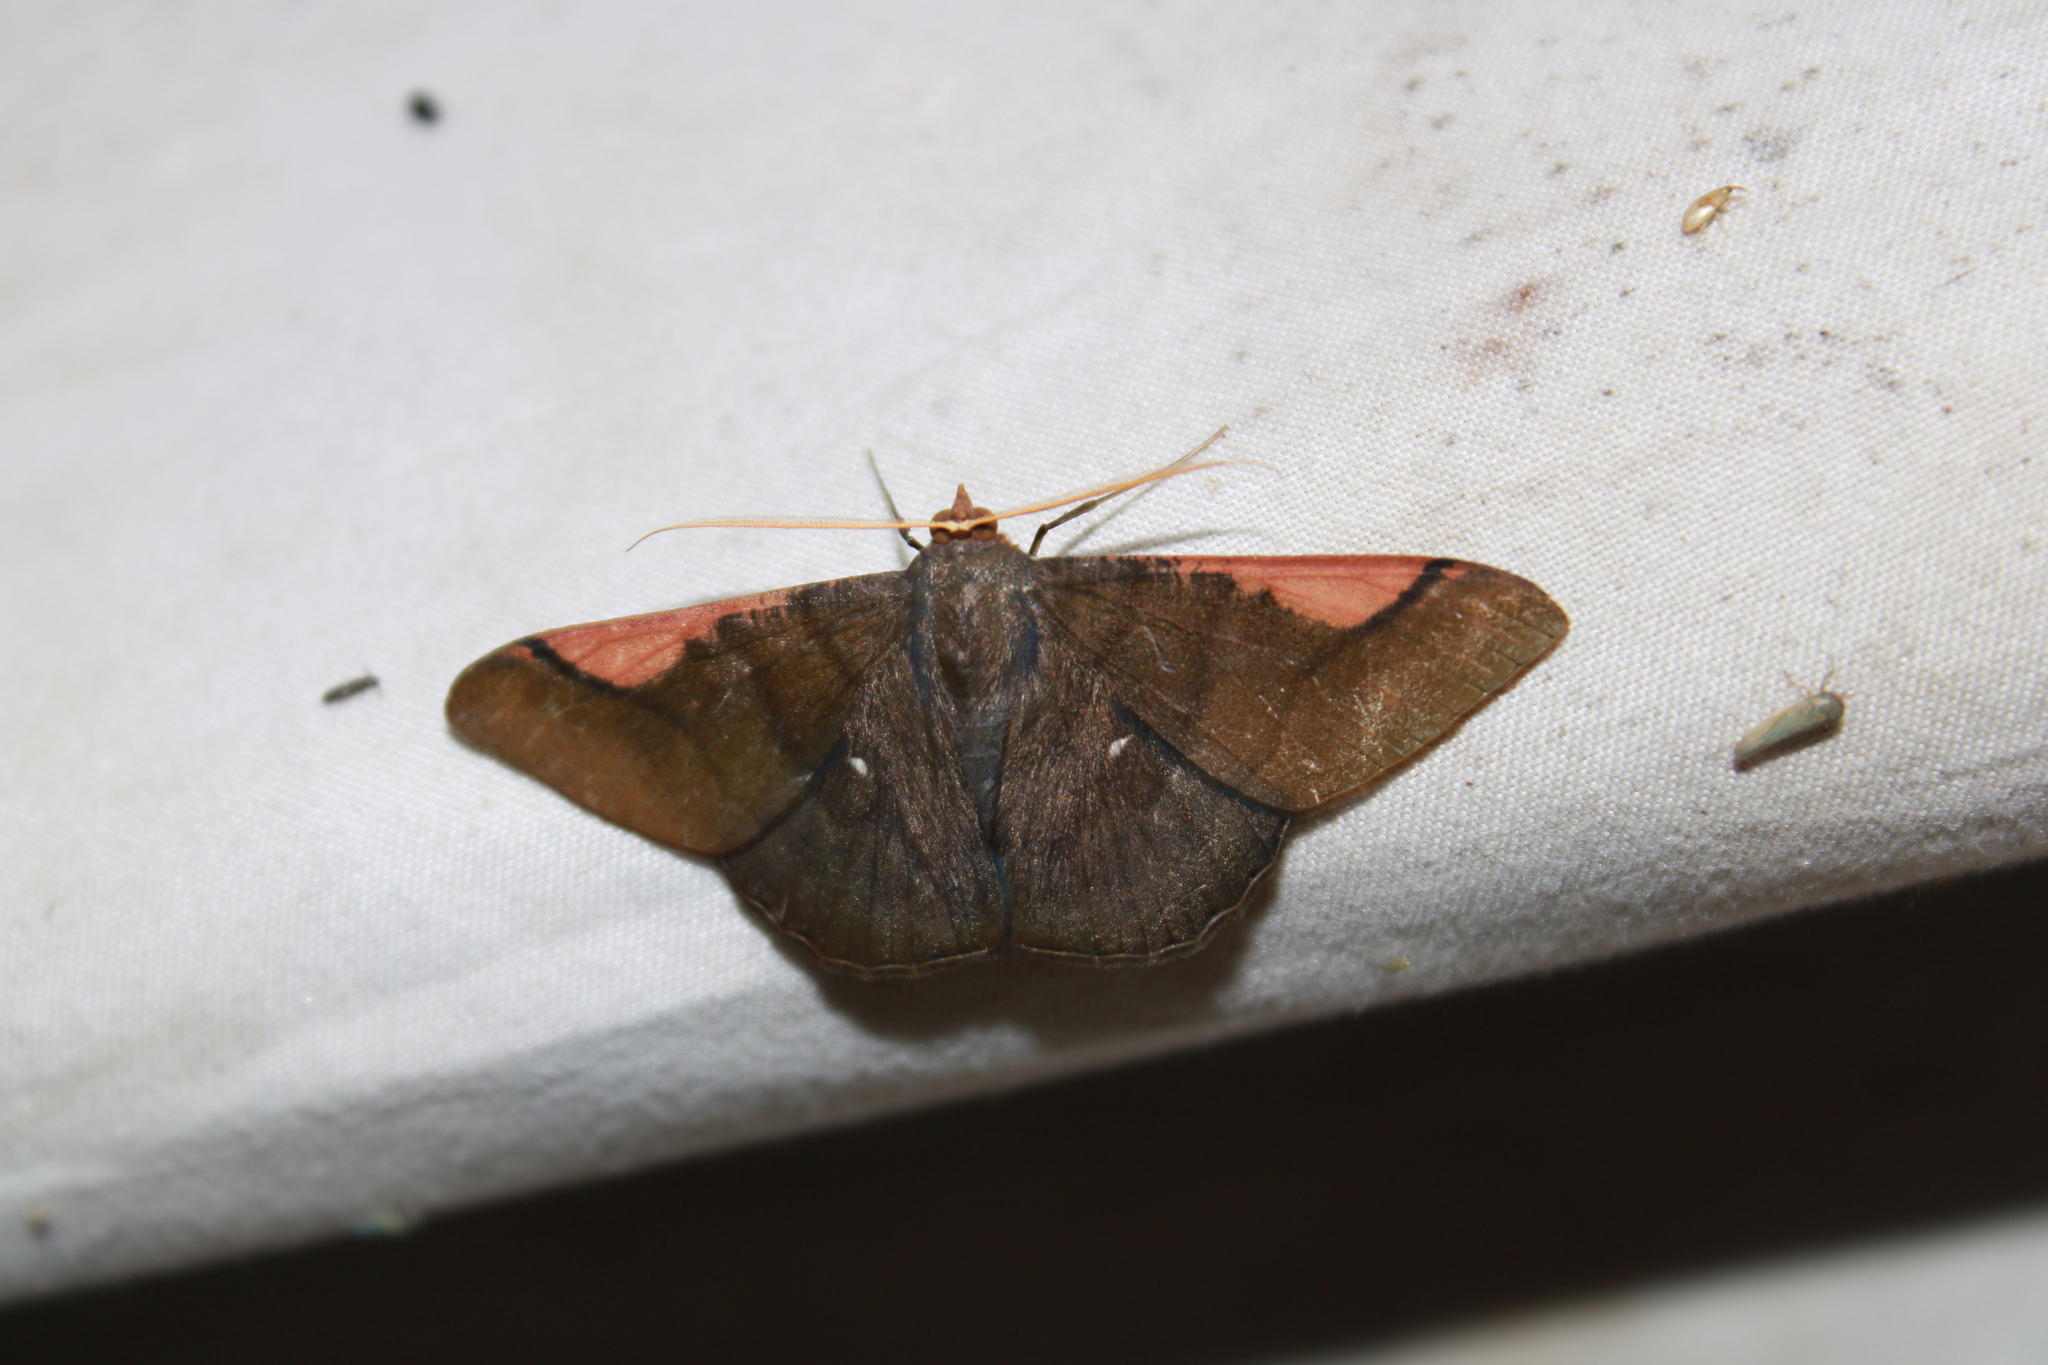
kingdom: Animalia
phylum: Arthropoda
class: Insecta
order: Lepidoptera
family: Geometridae
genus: Sphacelodes
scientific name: Sphacelodes vulneraria
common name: Looper moth
